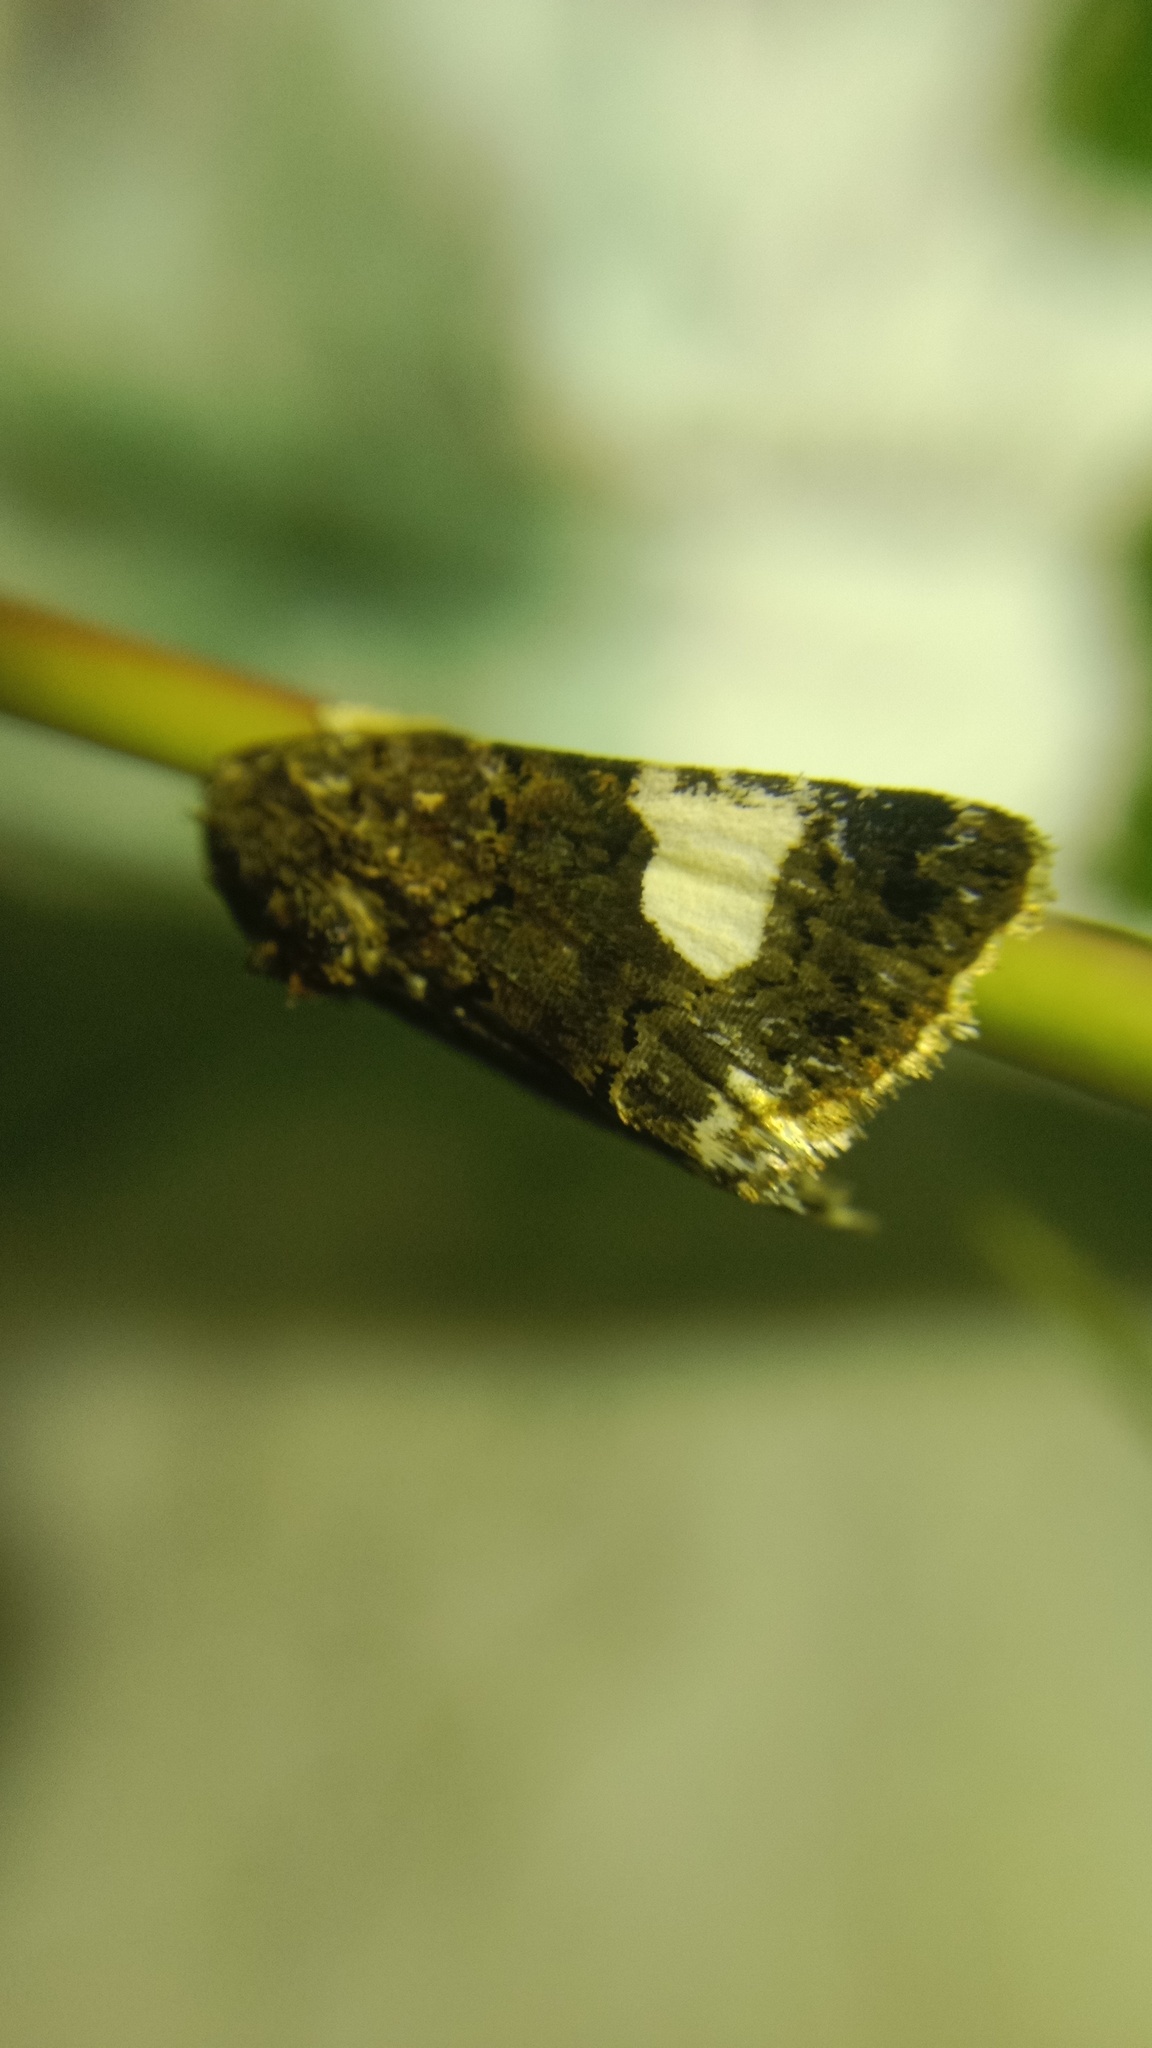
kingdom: Animalia
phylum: Arthropoda
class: Insecta
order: Lepidoptera
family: Erebidae
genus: Tyta
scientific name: Tyta luctuosa
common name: Four-spotted
